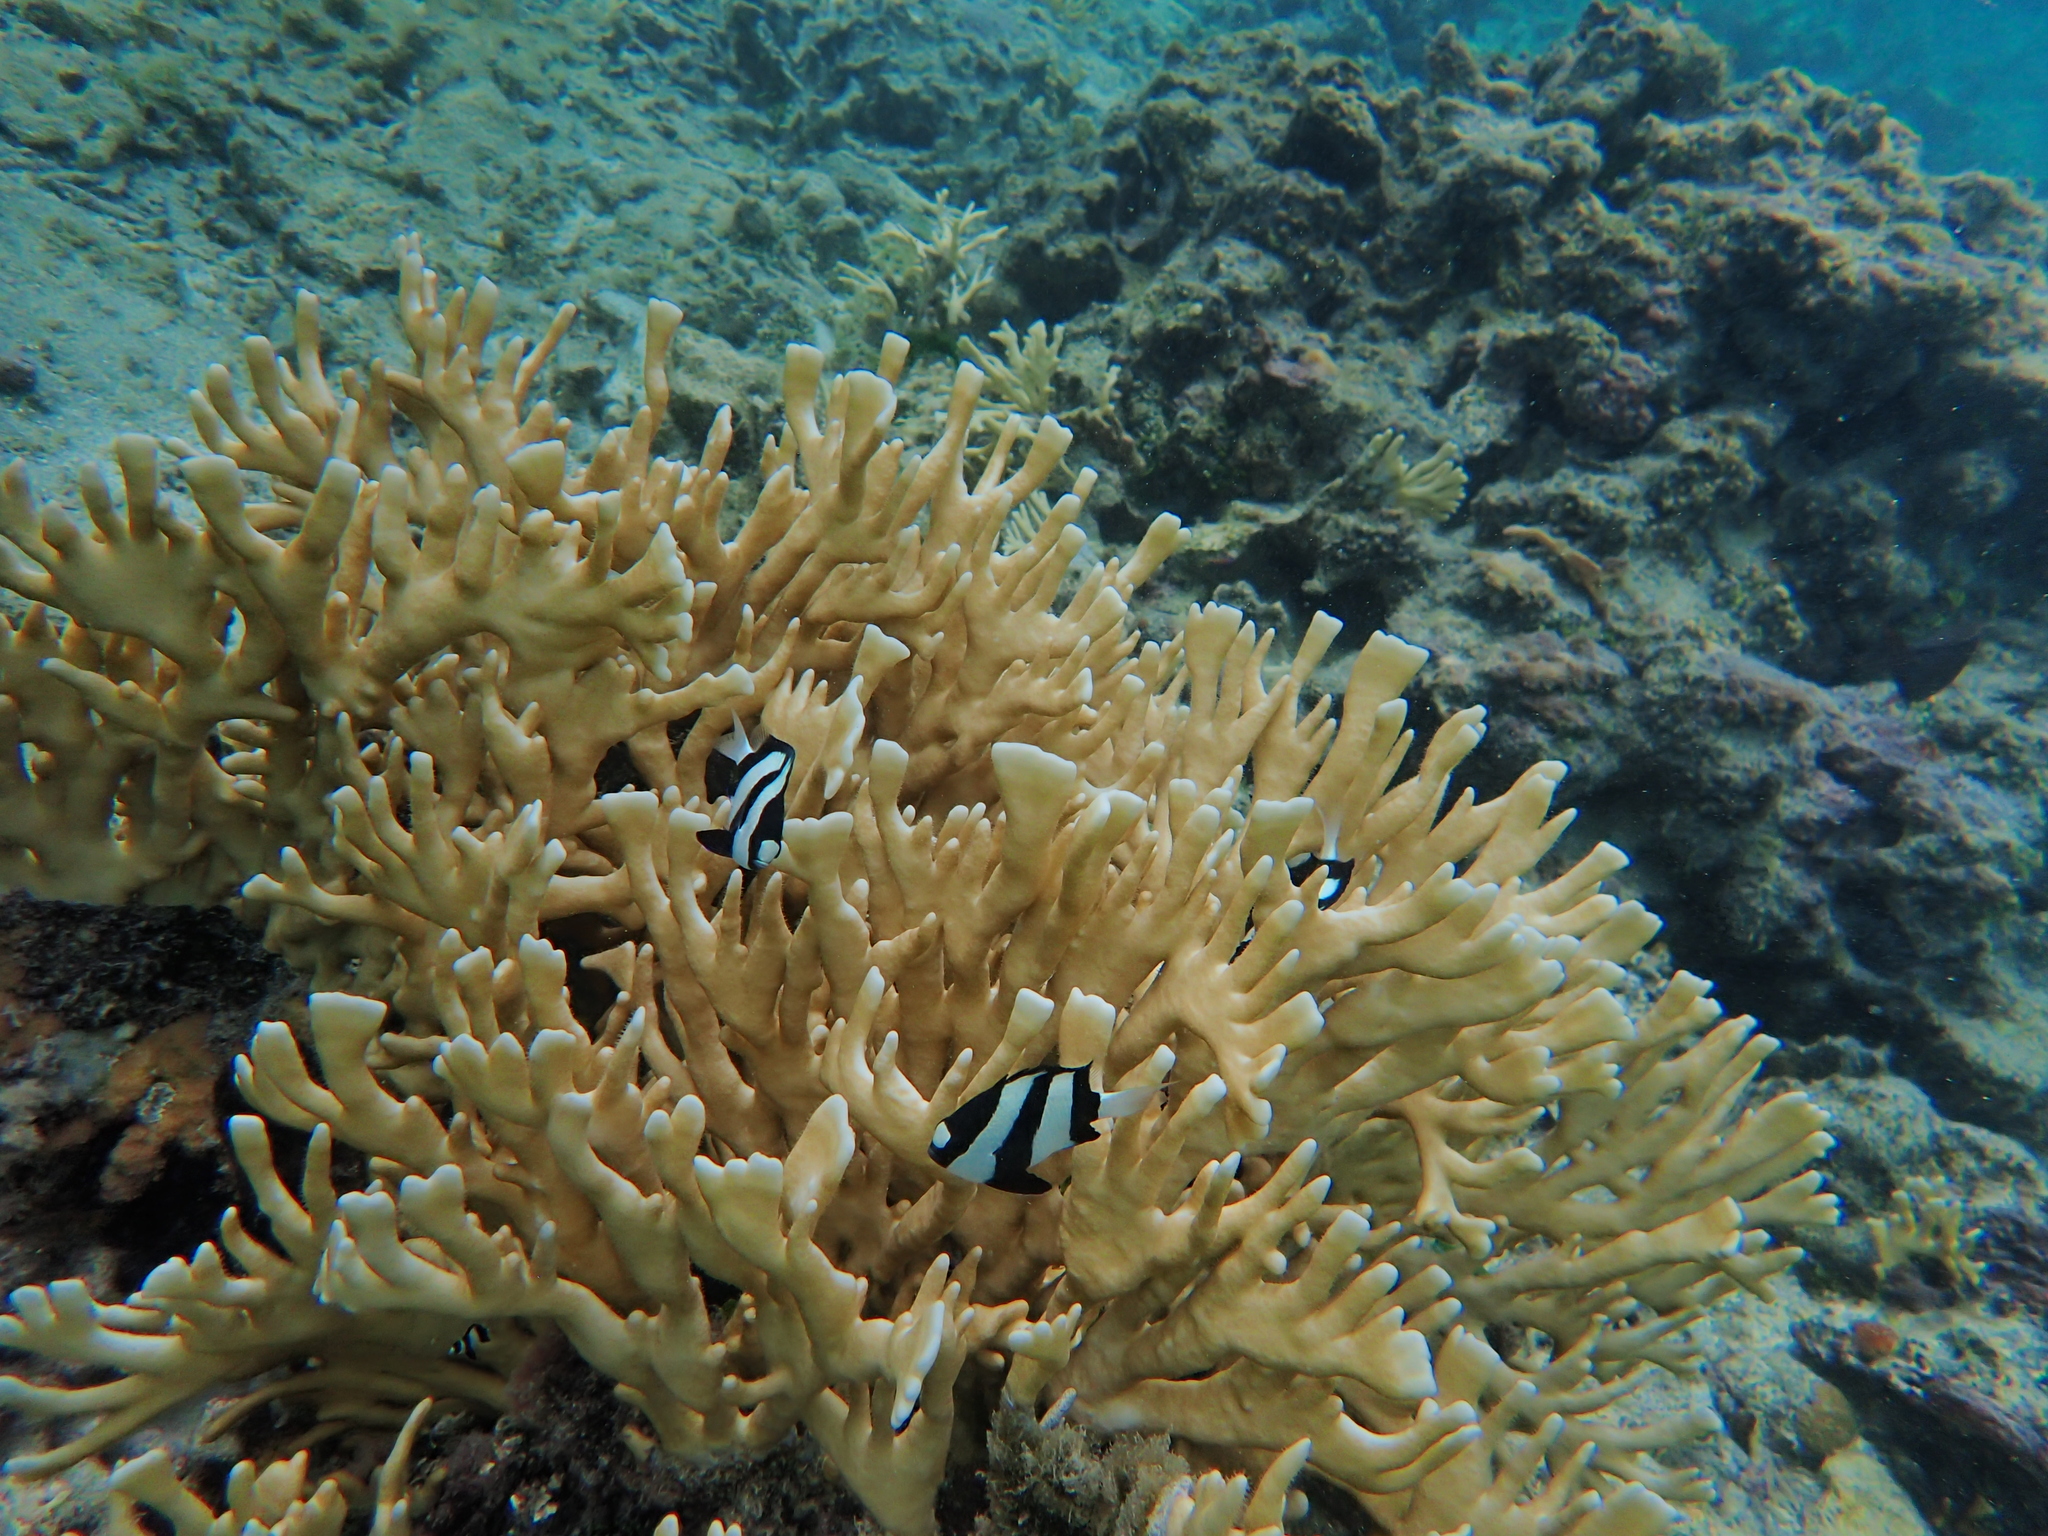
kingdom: Animalia
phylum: Chordata
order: Perciformes
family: Pomacentridae
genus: Dascyllus
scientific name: Dascyllus aruanus
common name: Humbug dascyllus
